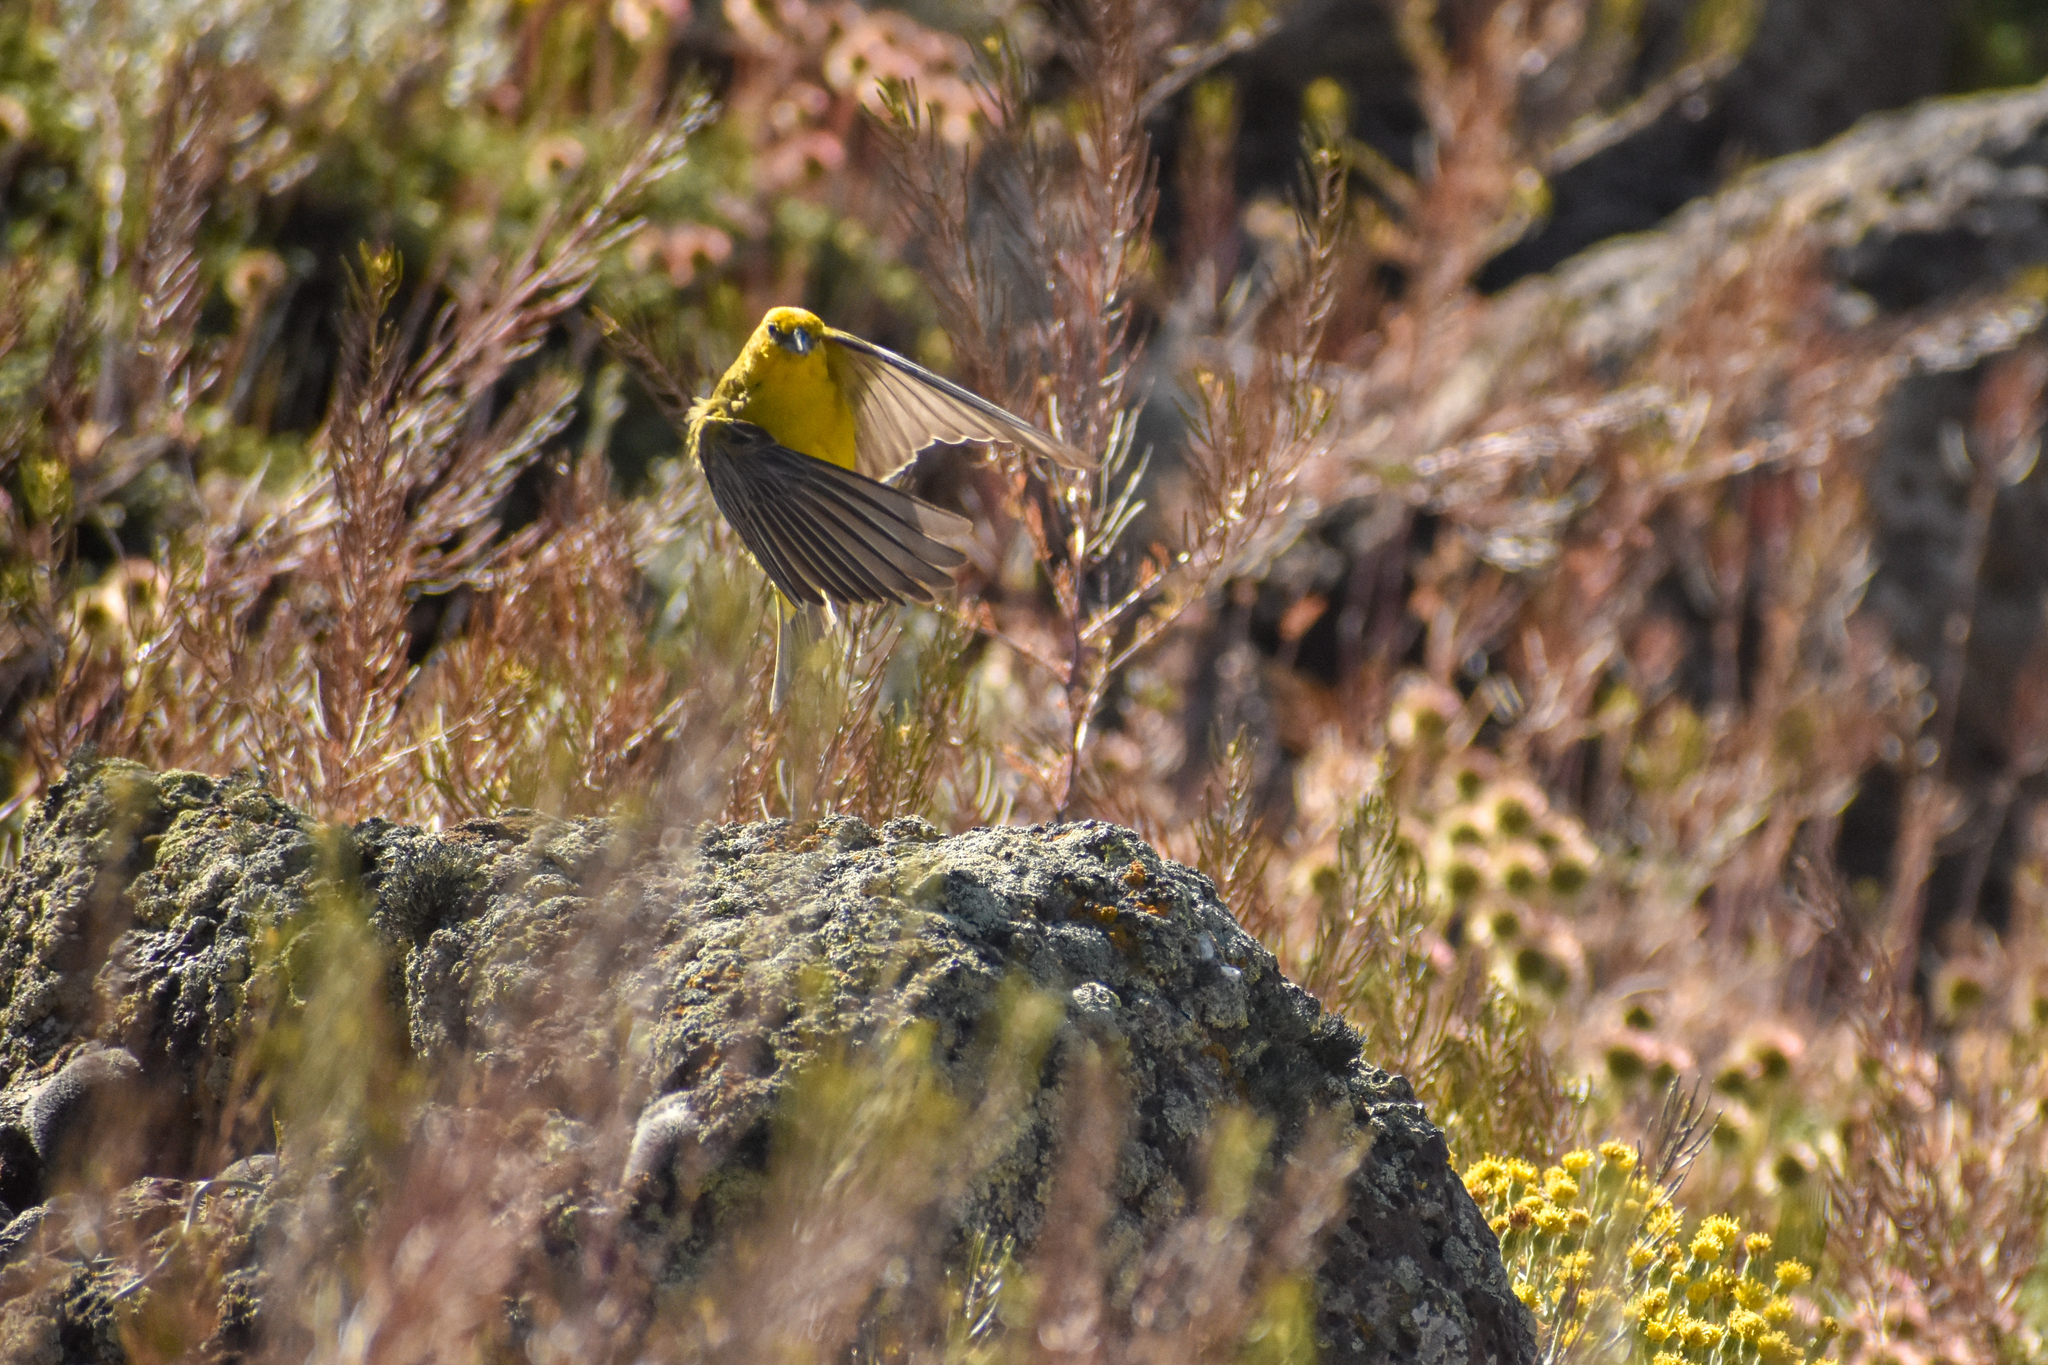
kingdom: Animalia
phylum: Chordata
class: Aves
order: Passeriformes
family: Thraupidae
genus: Sicalis
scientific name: Sicalis auriventris
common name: Greater yellow finch
